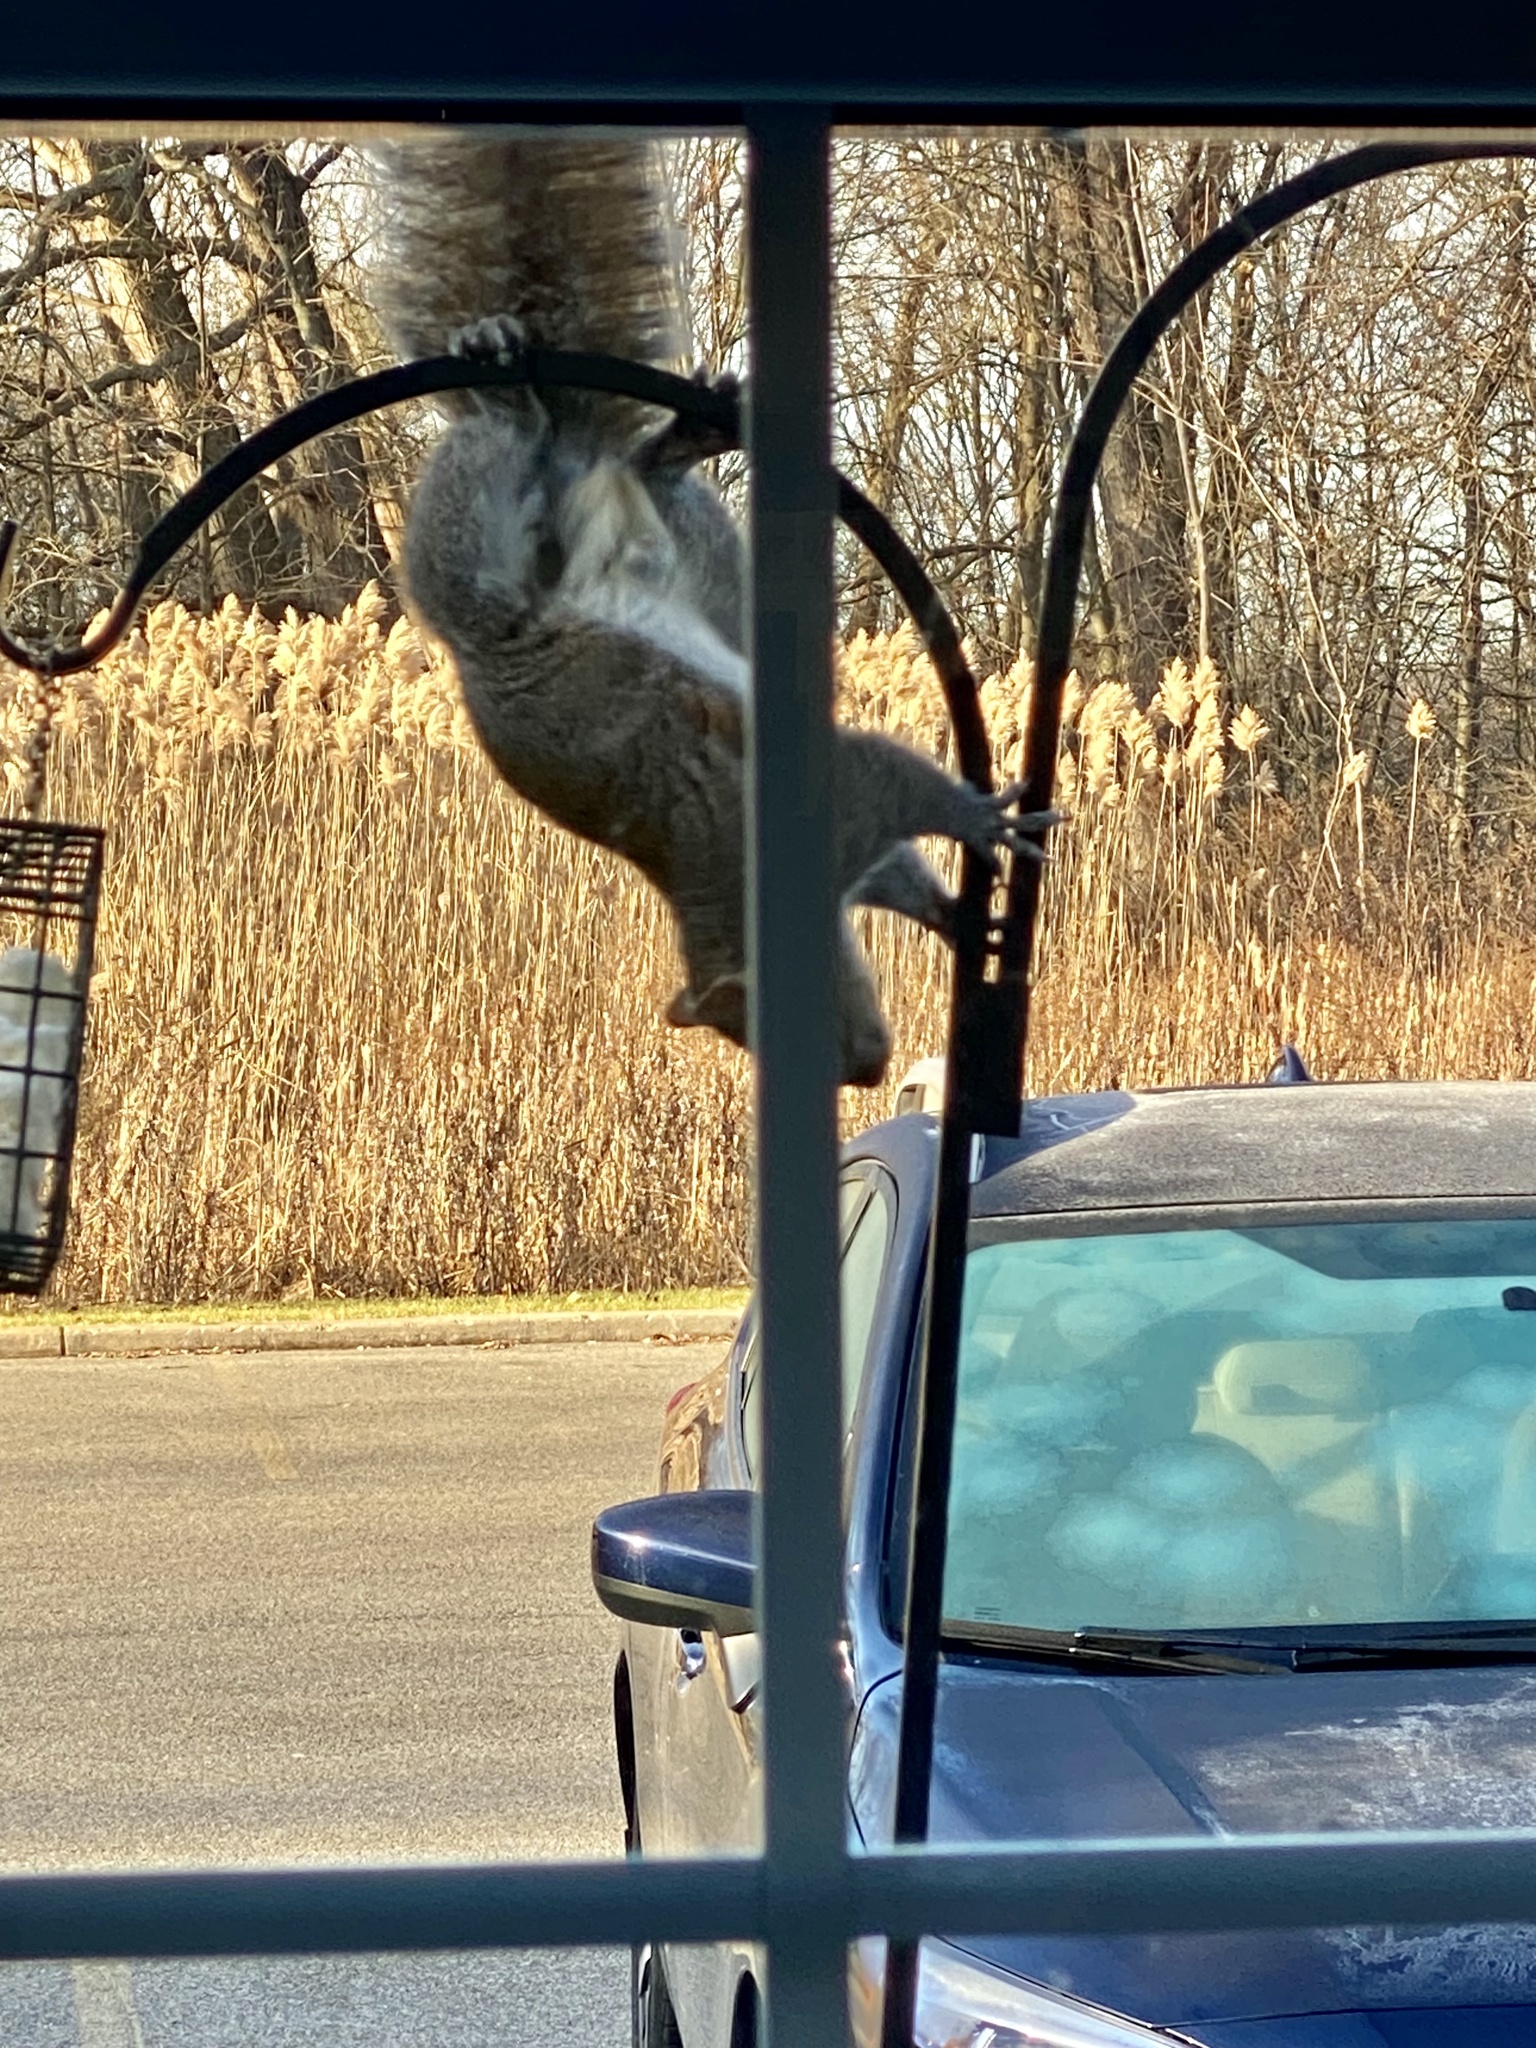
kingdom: Animalia
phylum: Chordata
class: Mammalia
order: Rodentia
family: Sciuridae
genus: Sciurus
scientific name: Sciurus carolinensis
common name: Eastern gray squirrel
